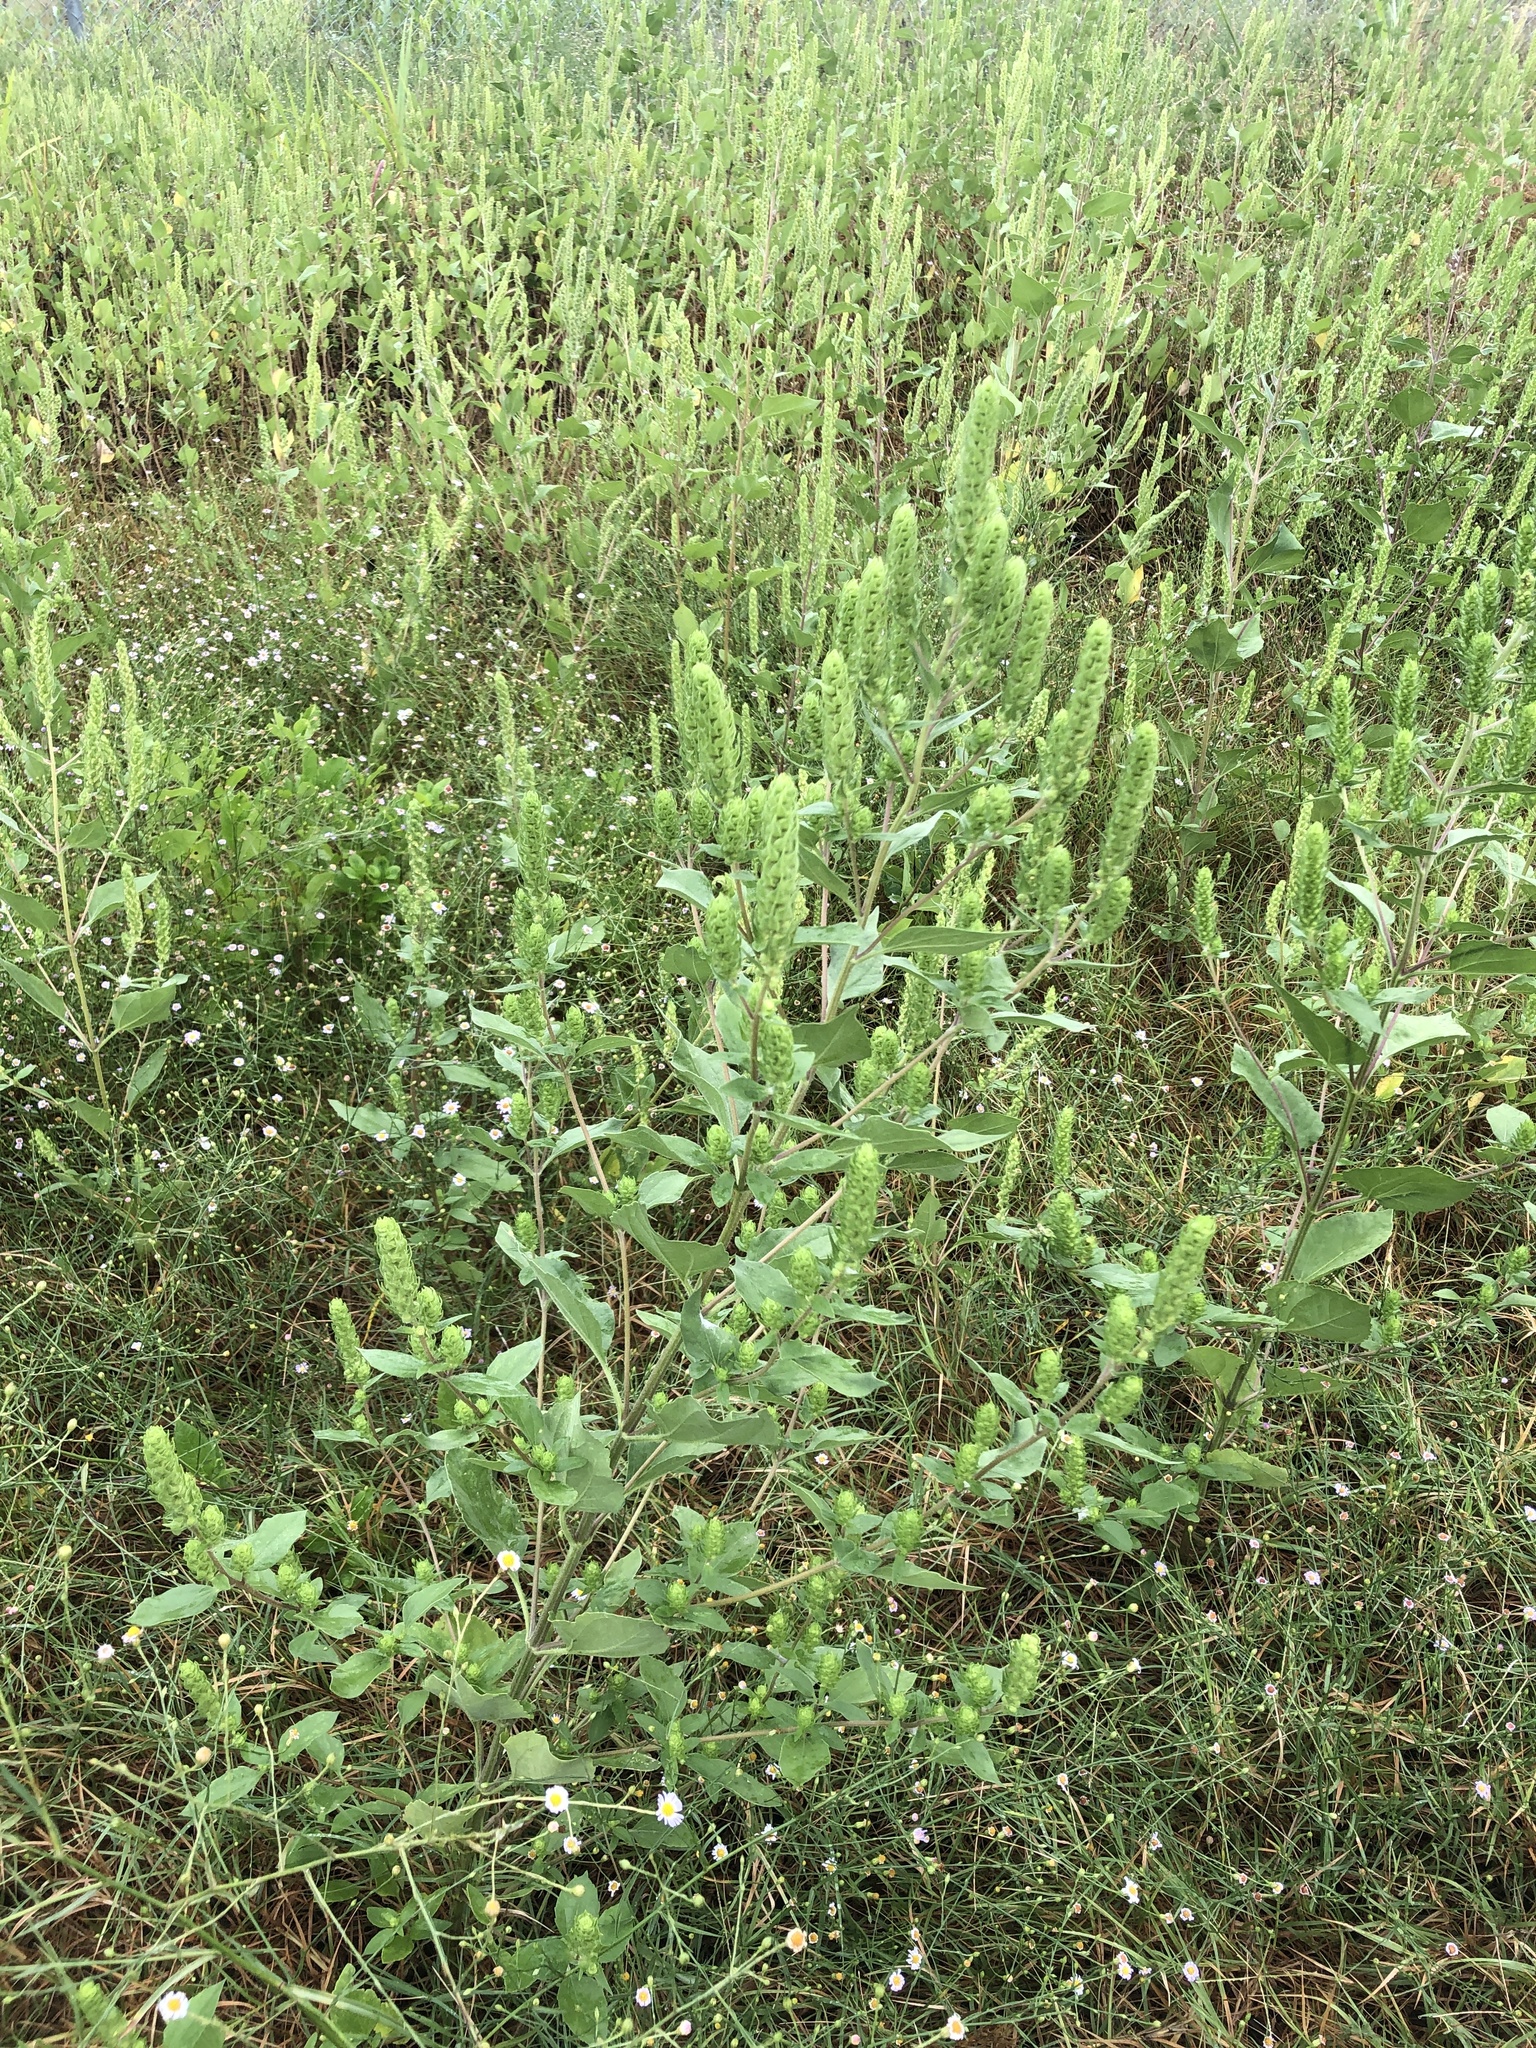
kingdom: Plantae
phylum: Tracheophyta
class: Magnoliopsida
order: Asterales
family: Asteraceae
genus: Iva
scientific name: Iva annua
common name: Marsh-elder
